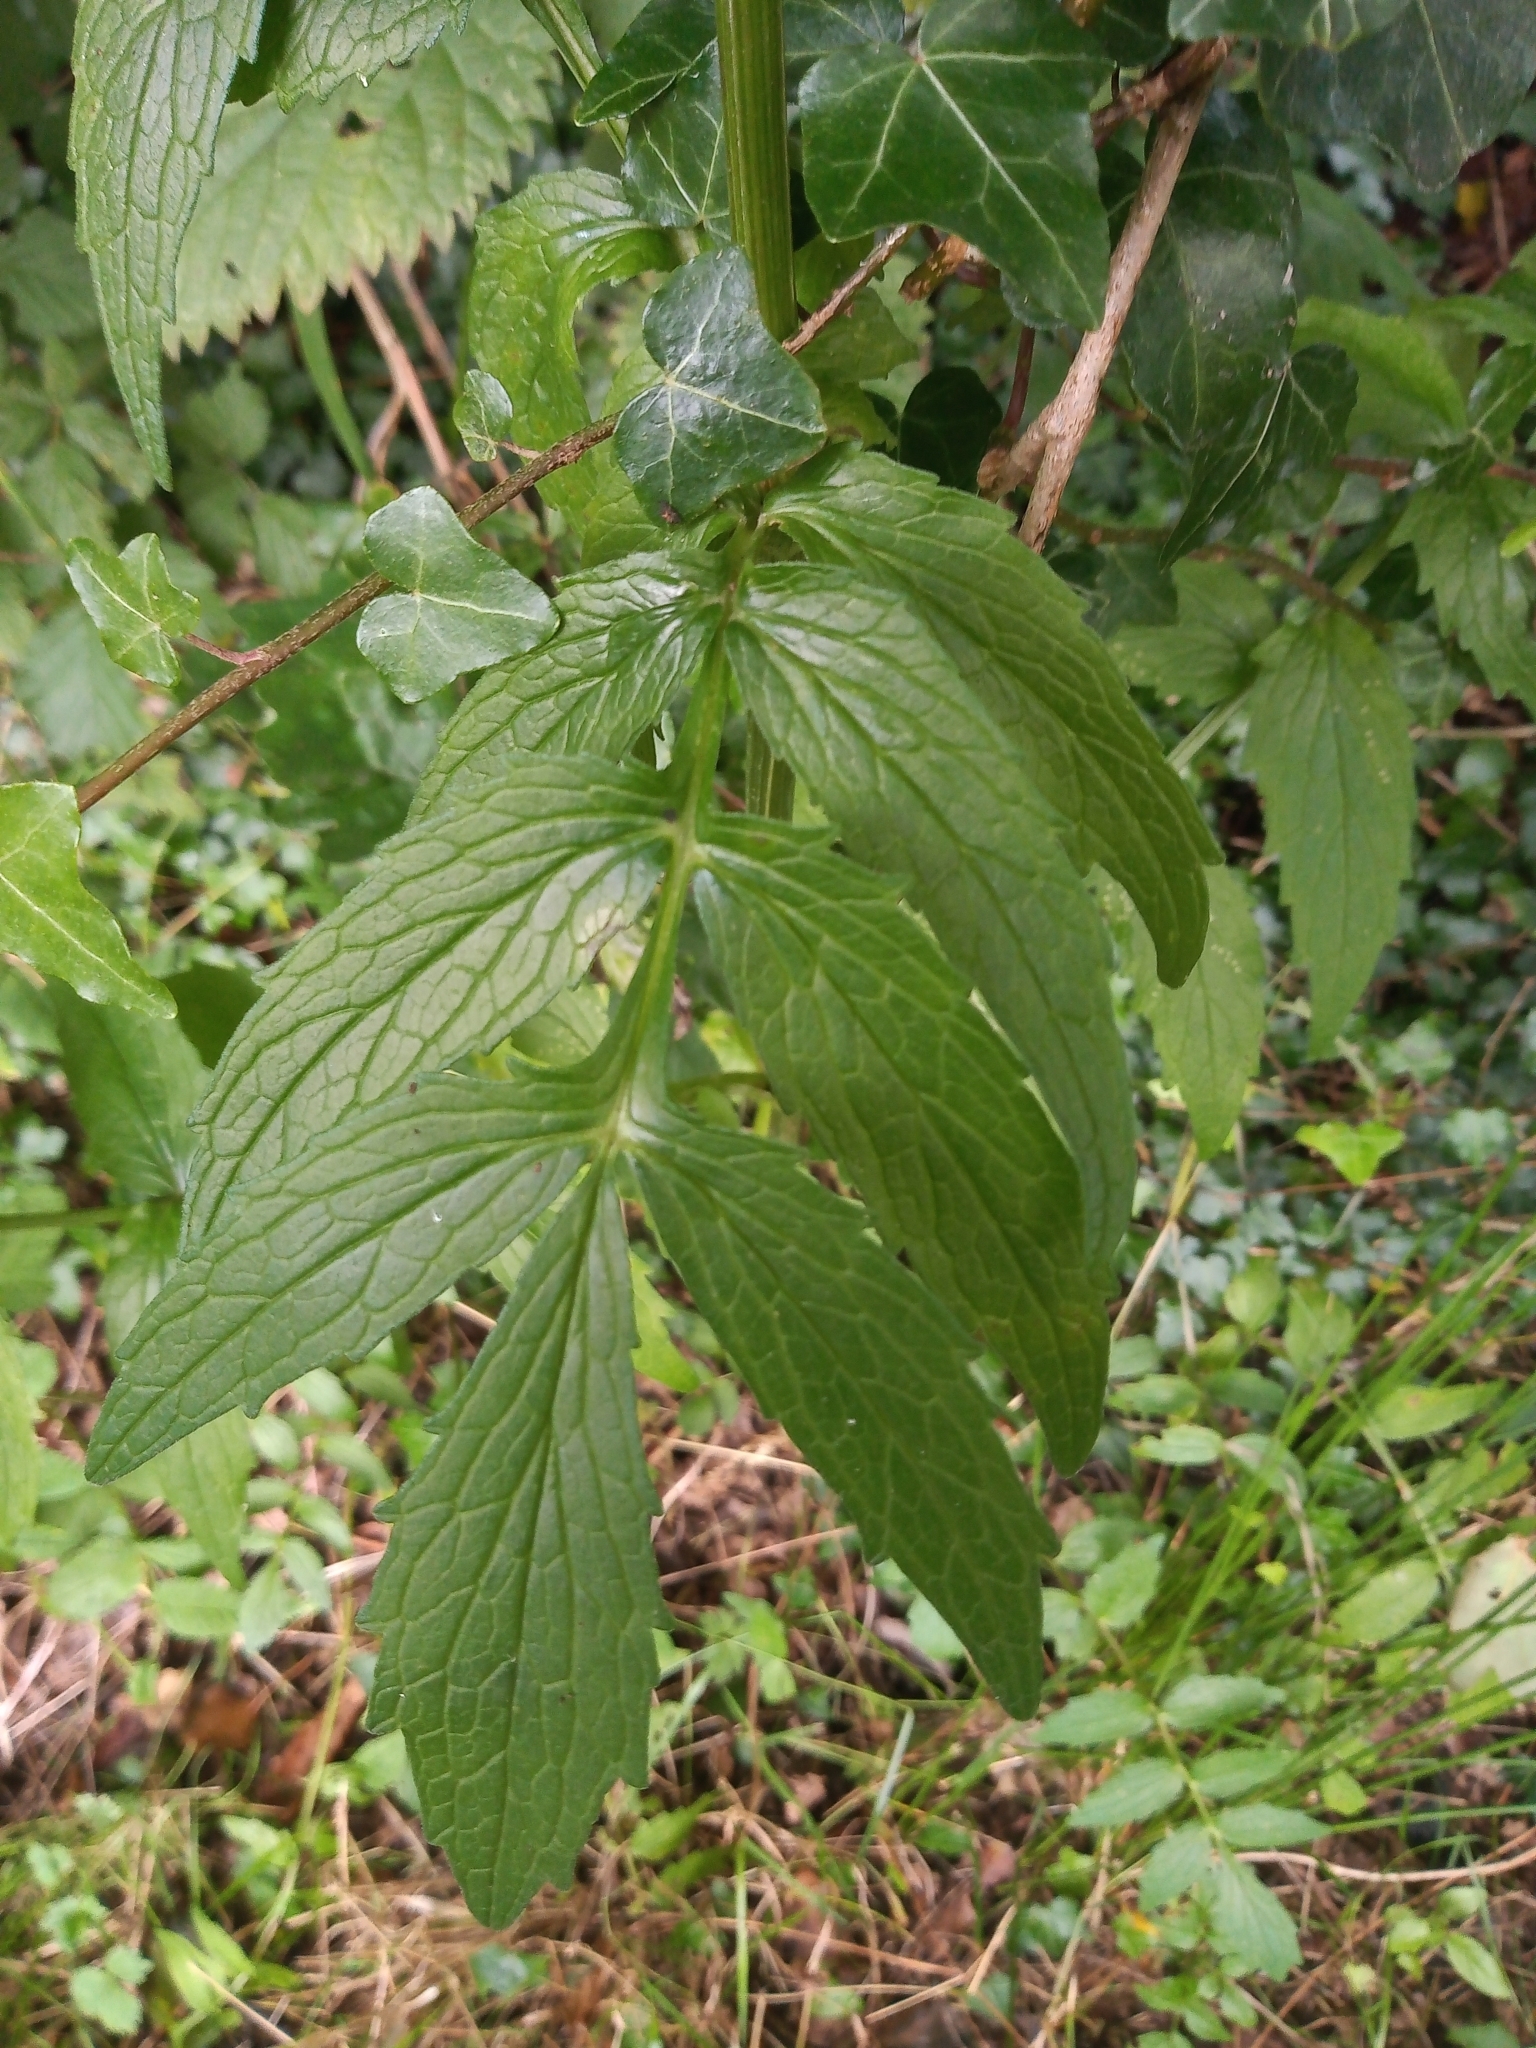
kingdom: Plantae
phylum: Tracheophyta
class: Magnoliopsida
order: Dipsacales
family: Caprifoliaceae
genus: Valeriana
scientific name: Valeriana officinalis
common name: Common valerian
